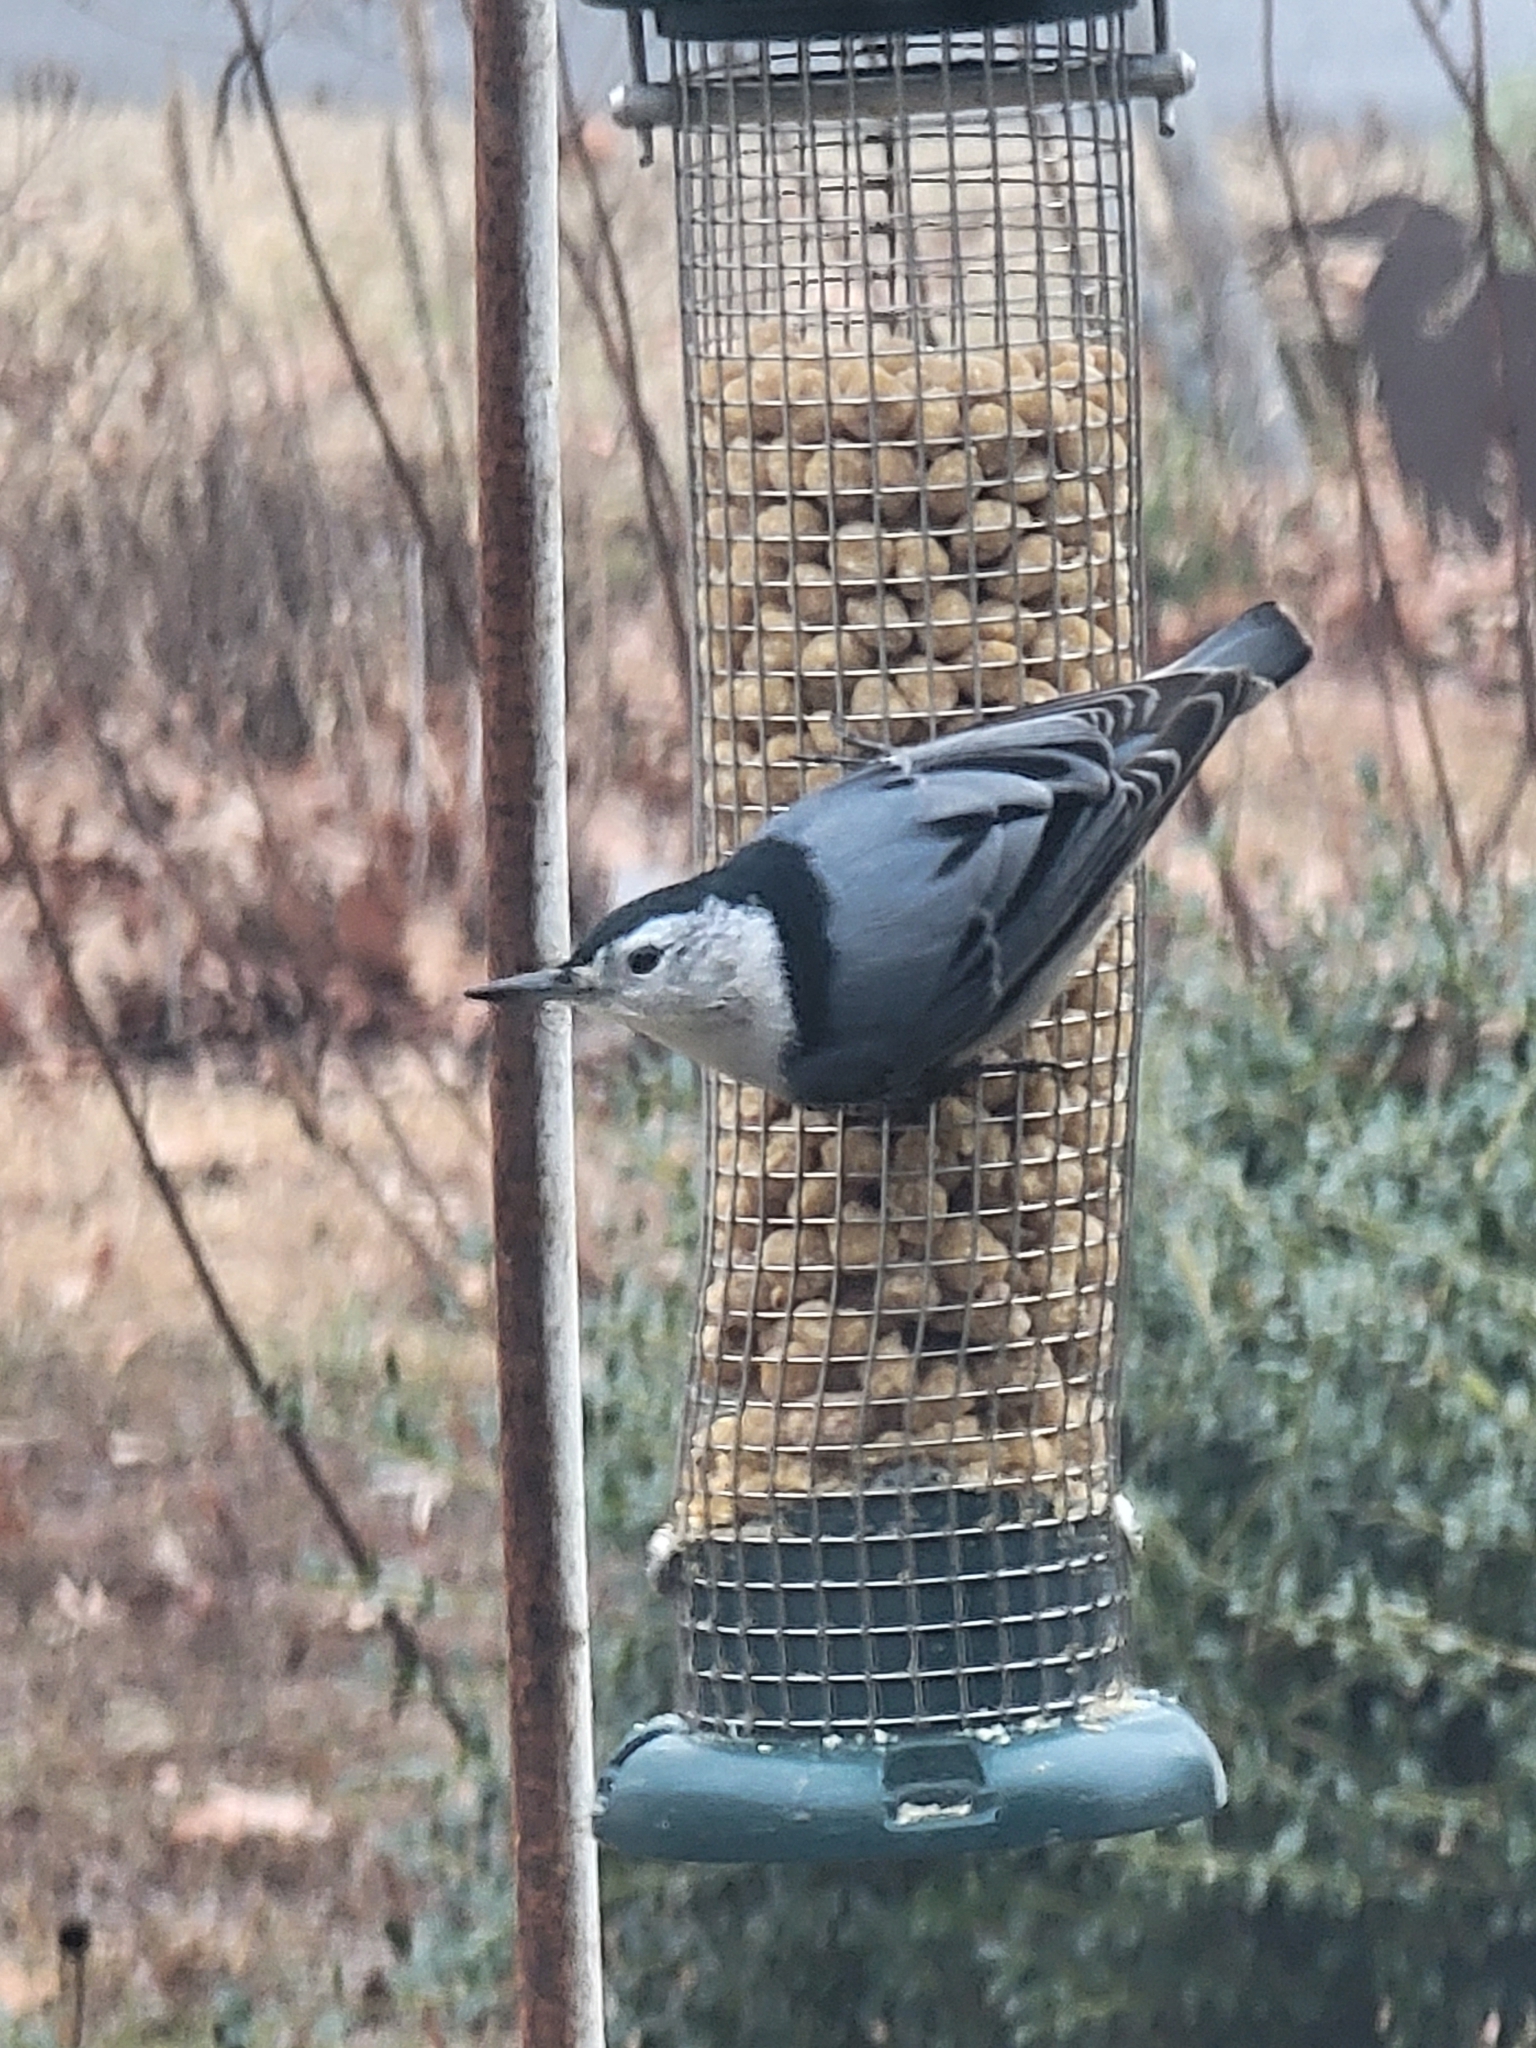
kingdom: Animalia
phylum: Chordata
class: Aves
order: Passeriformes
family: Sittidae
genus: Sitta
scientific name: Sitta carolinensis
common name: White-breasted nuthatch
